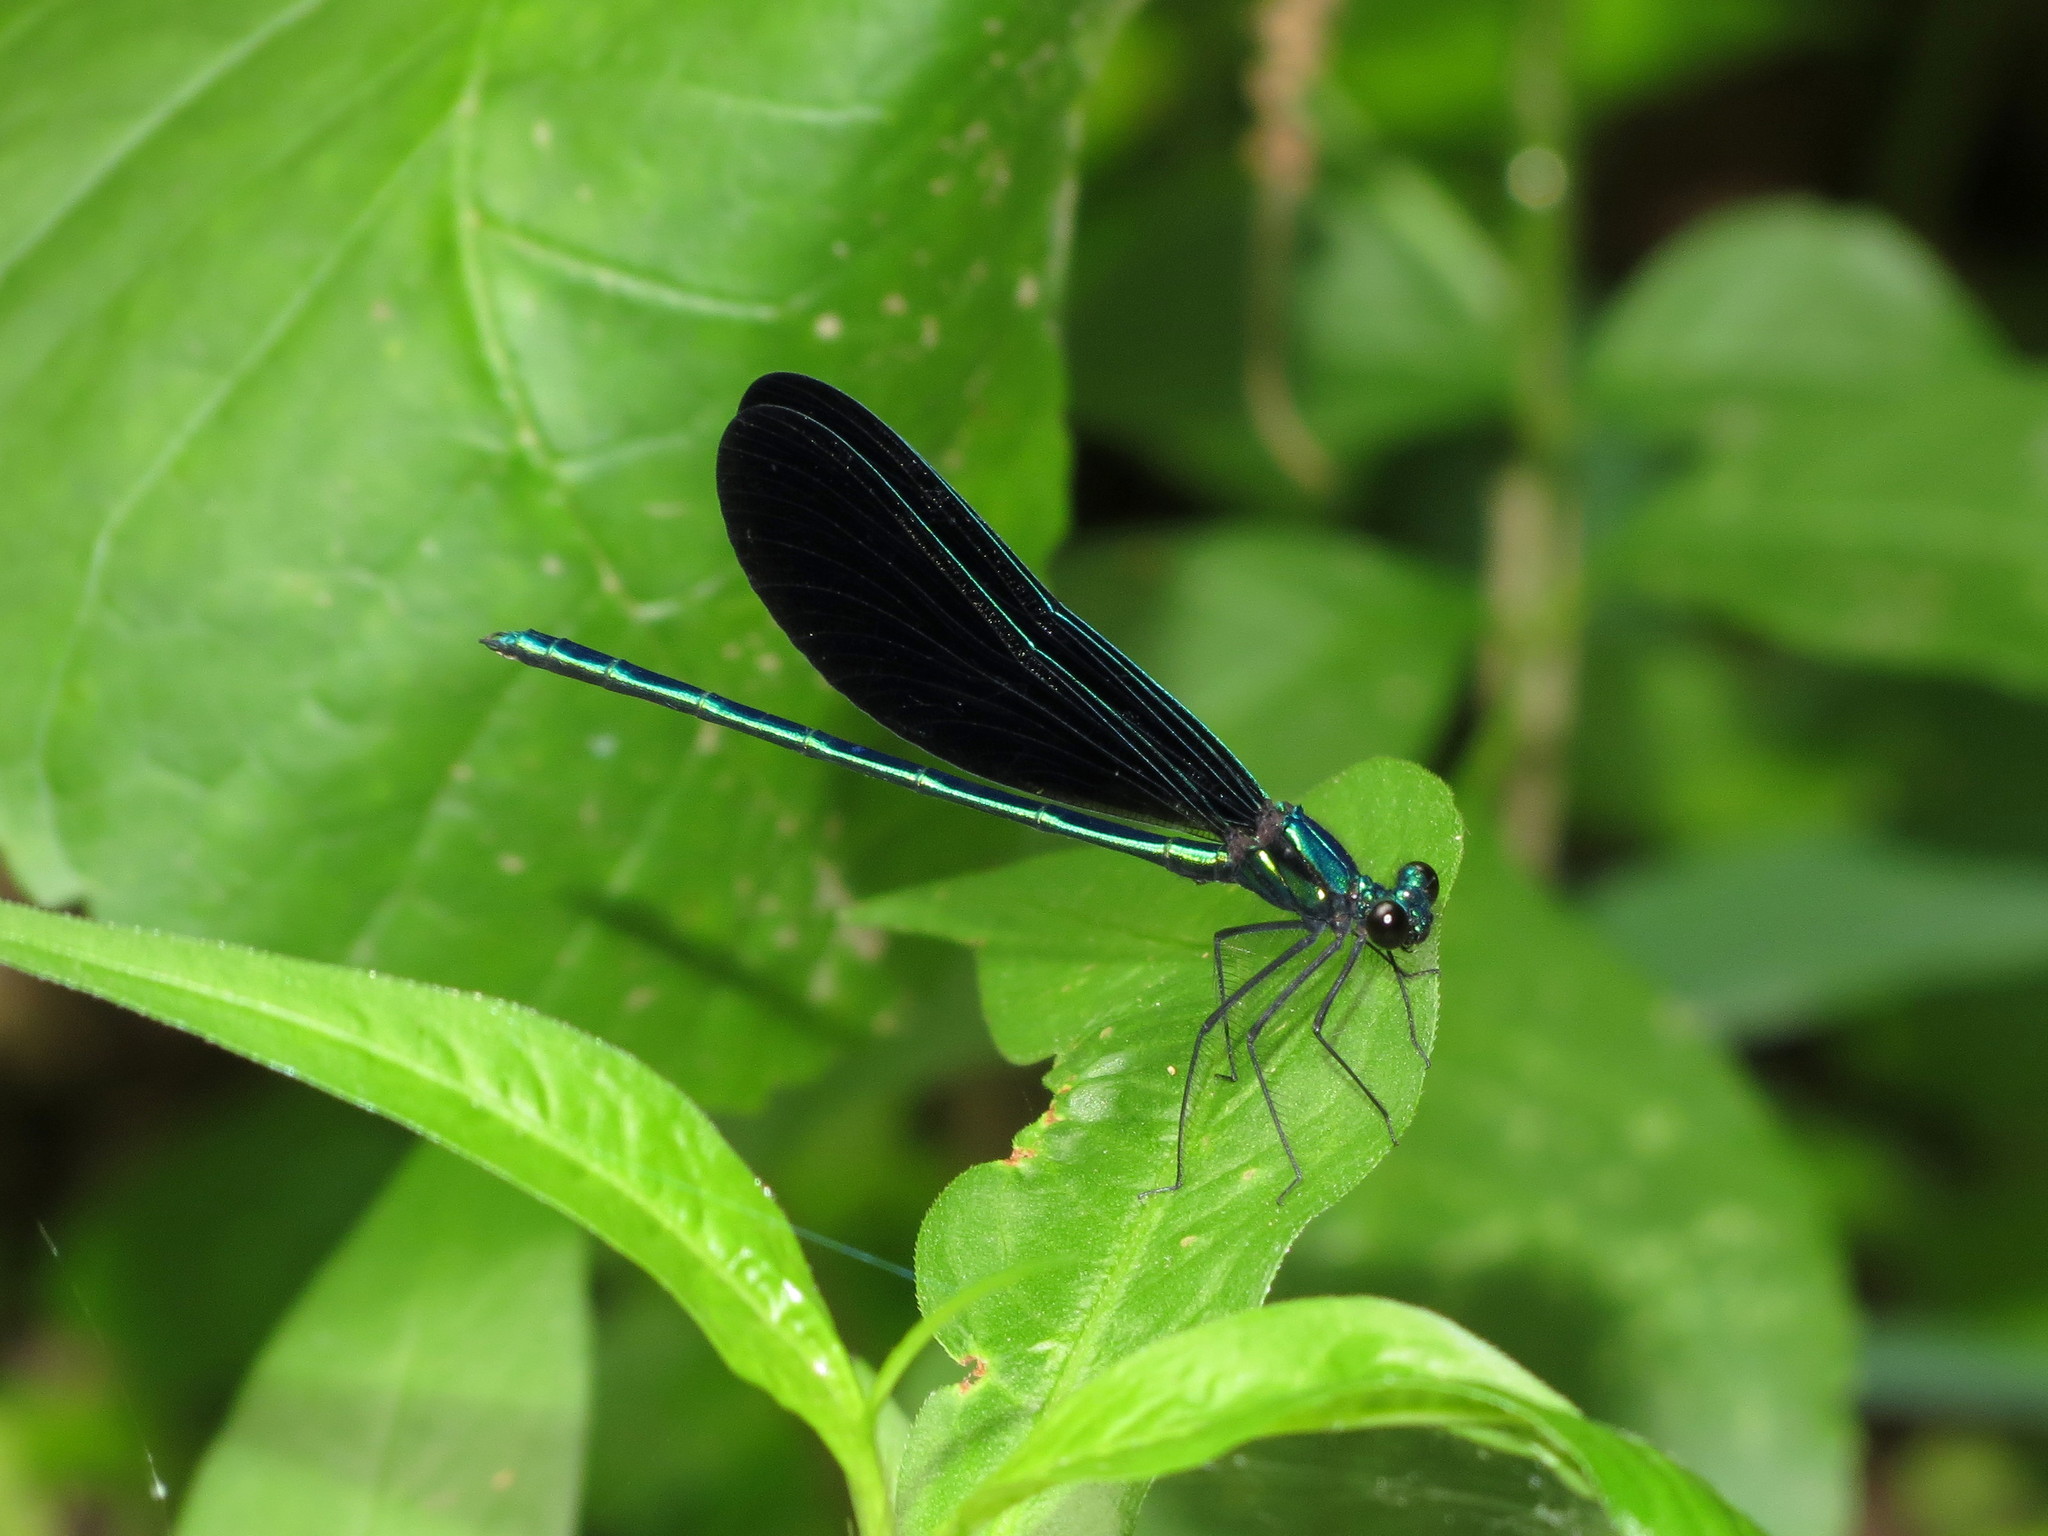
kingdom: Animalia
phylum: Arthropoda
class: Insecta
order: Odonata
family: Calopterygidae
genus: Calopteryx
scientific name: Calopteryx maculata
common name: Ebony jewelwing
